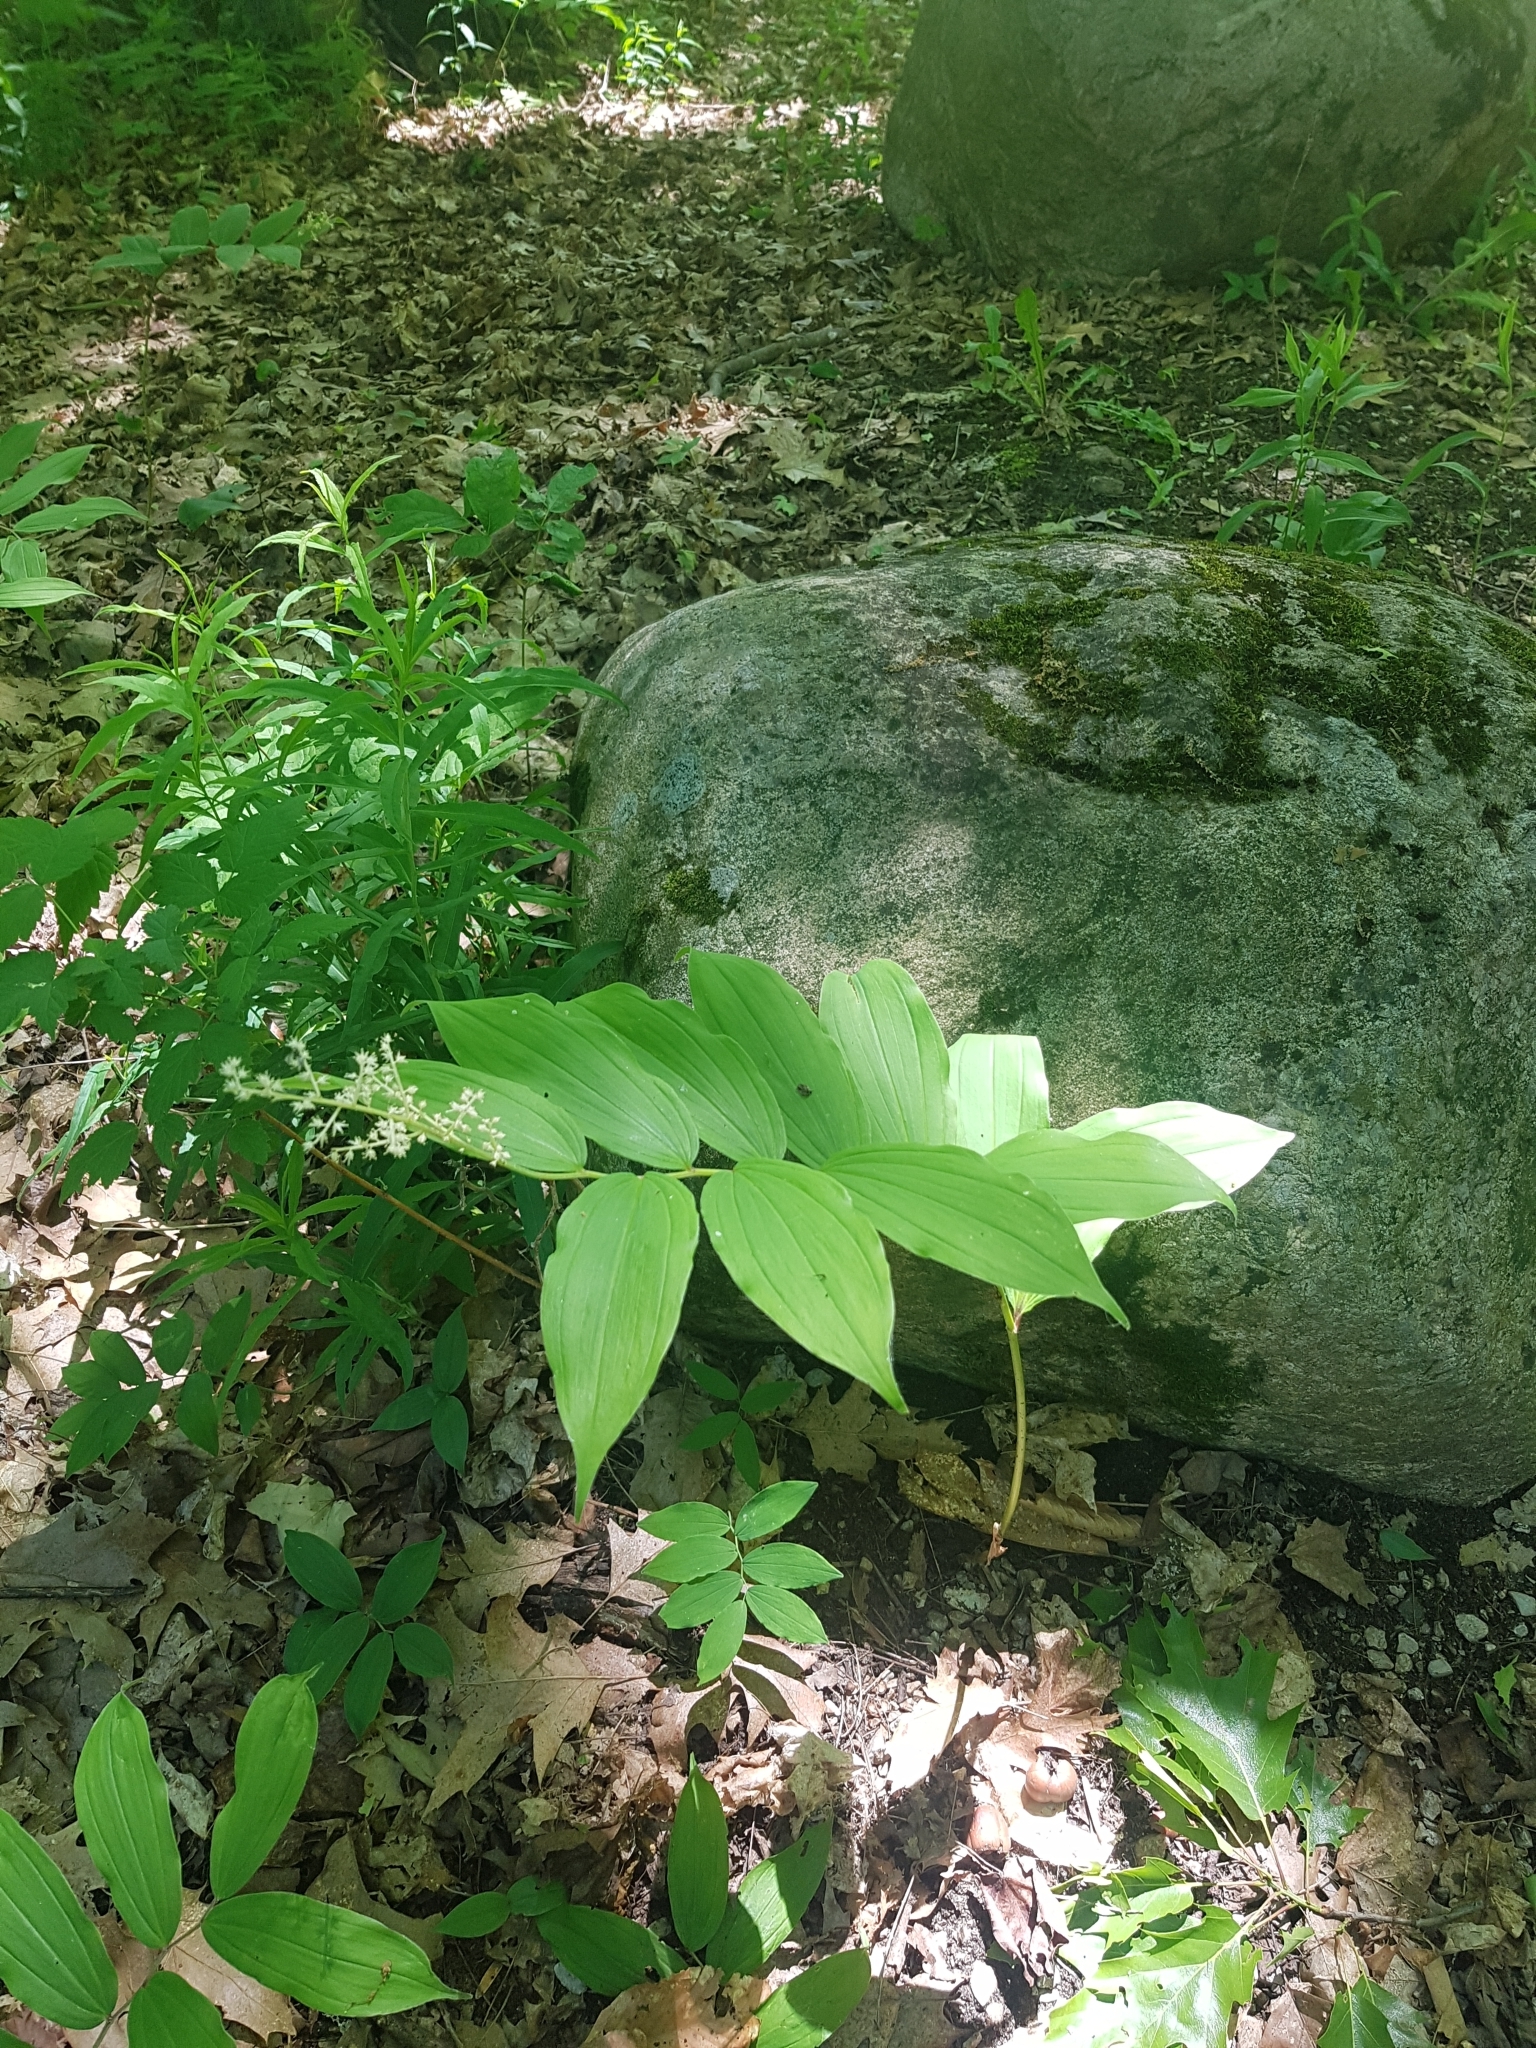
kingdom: Plantae
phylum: Tracheophyta
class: Liliopsida
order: Asparagales
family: Asparagaceae
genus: Maianthemum
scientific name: Maianthemum racemosum
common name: False spikenard
